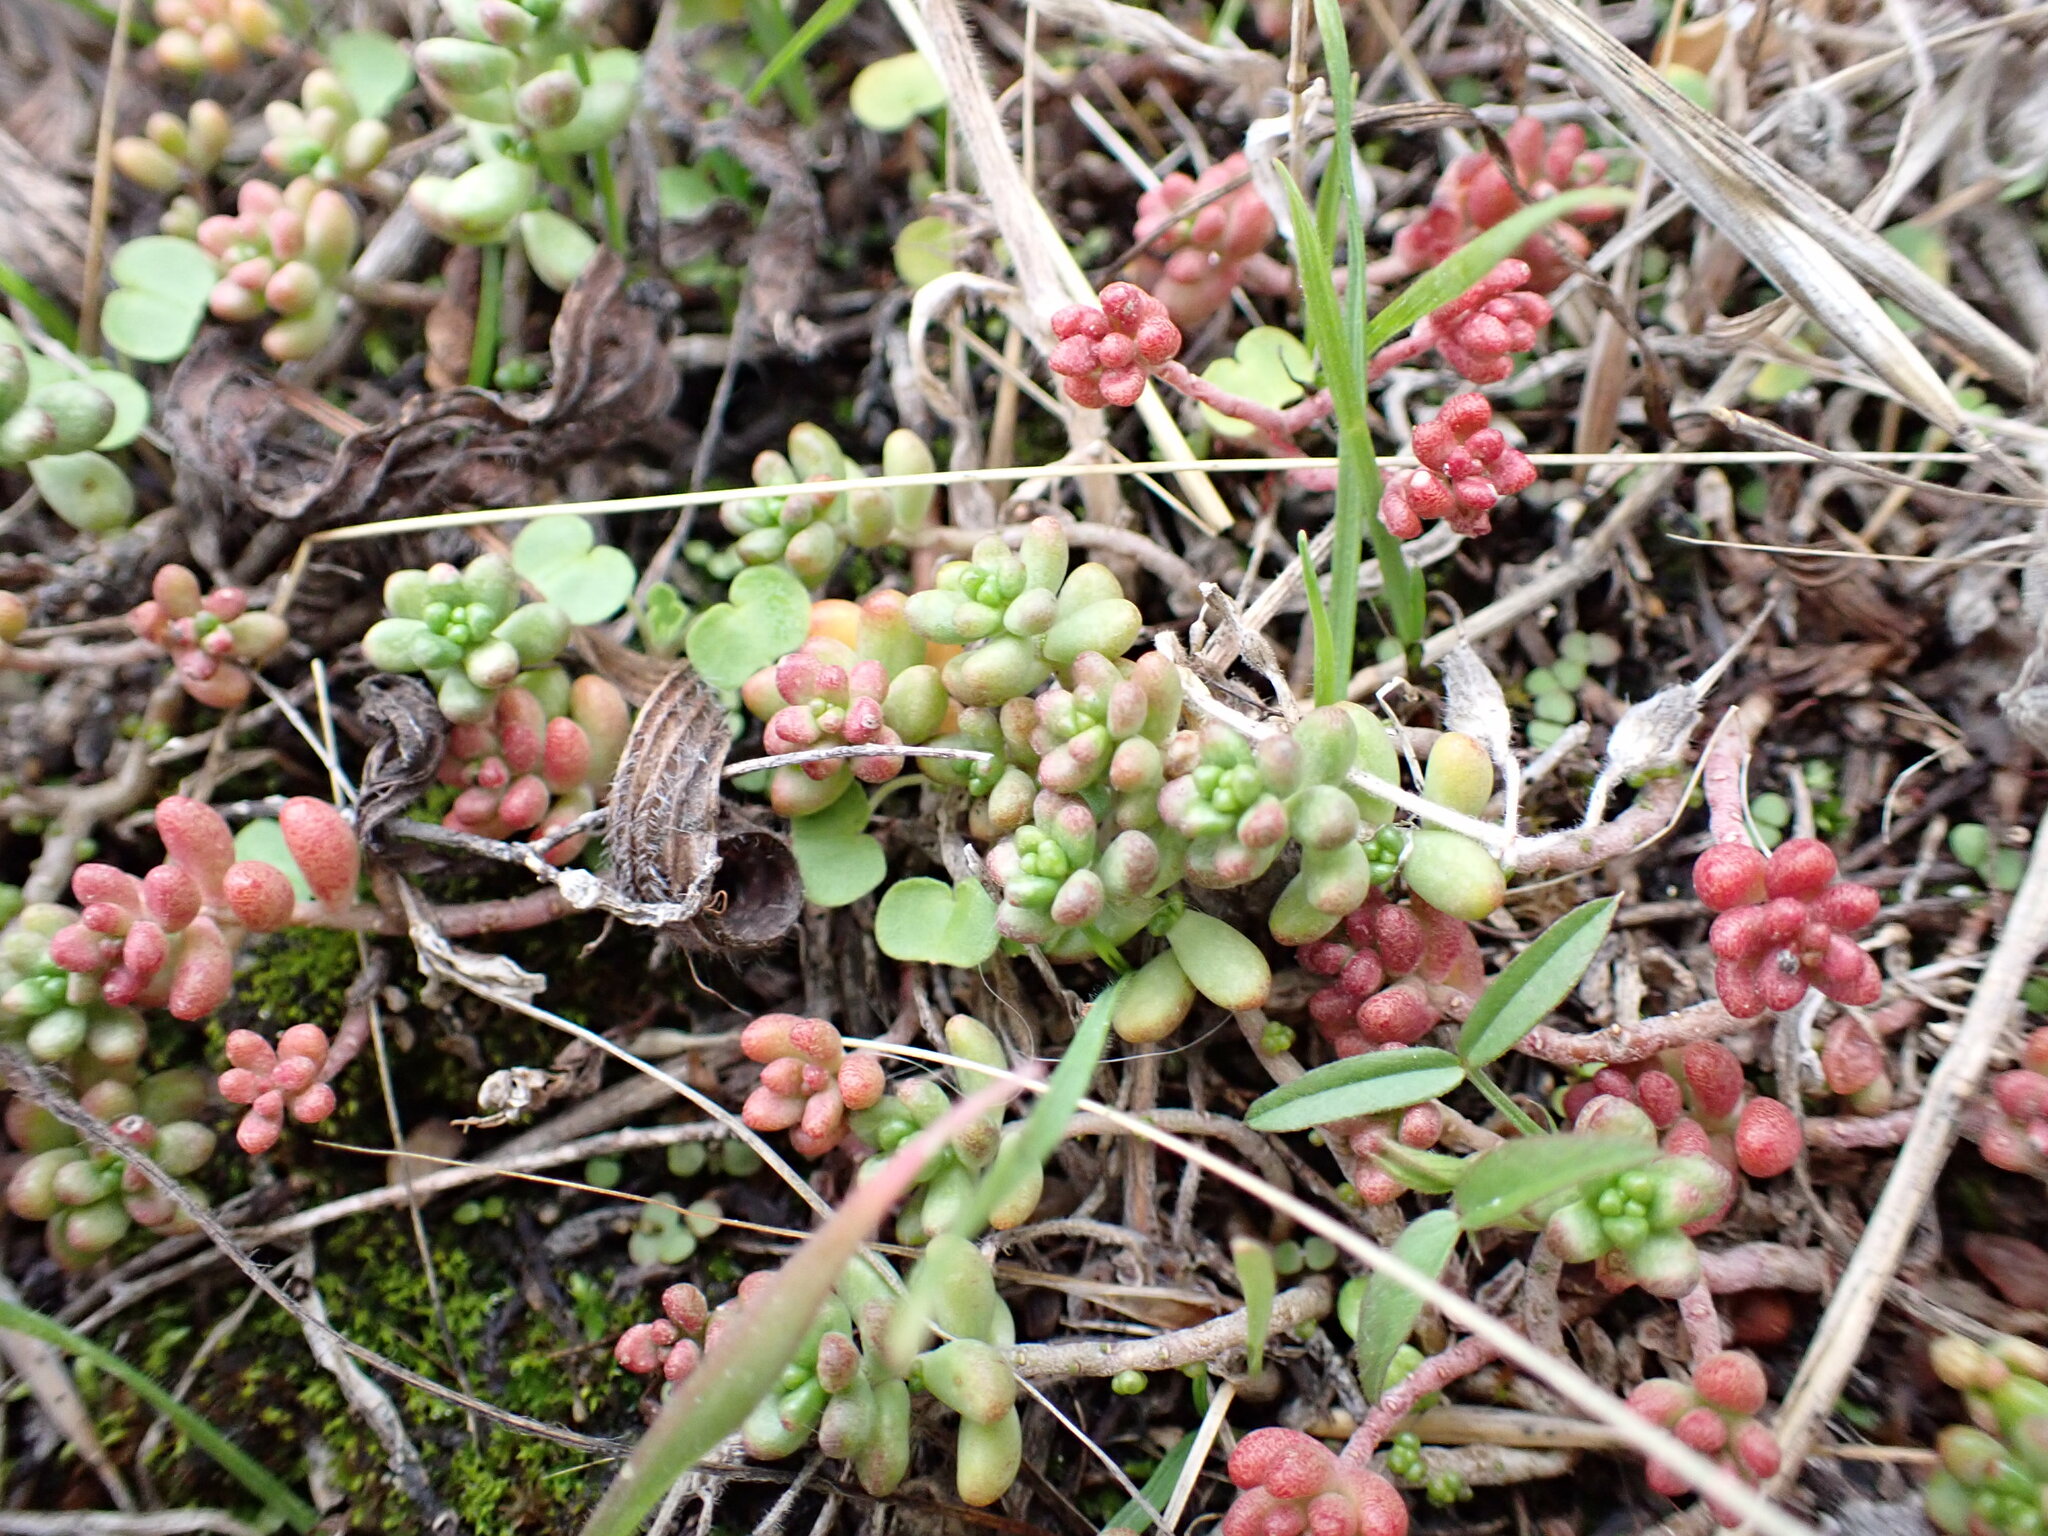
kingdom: Plantae
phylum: Tracheophyta
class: Magnoliopsida
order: Saxifragales
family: Crassulaceae
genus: Sedum
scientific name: Sedum album
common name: White stonecrop
